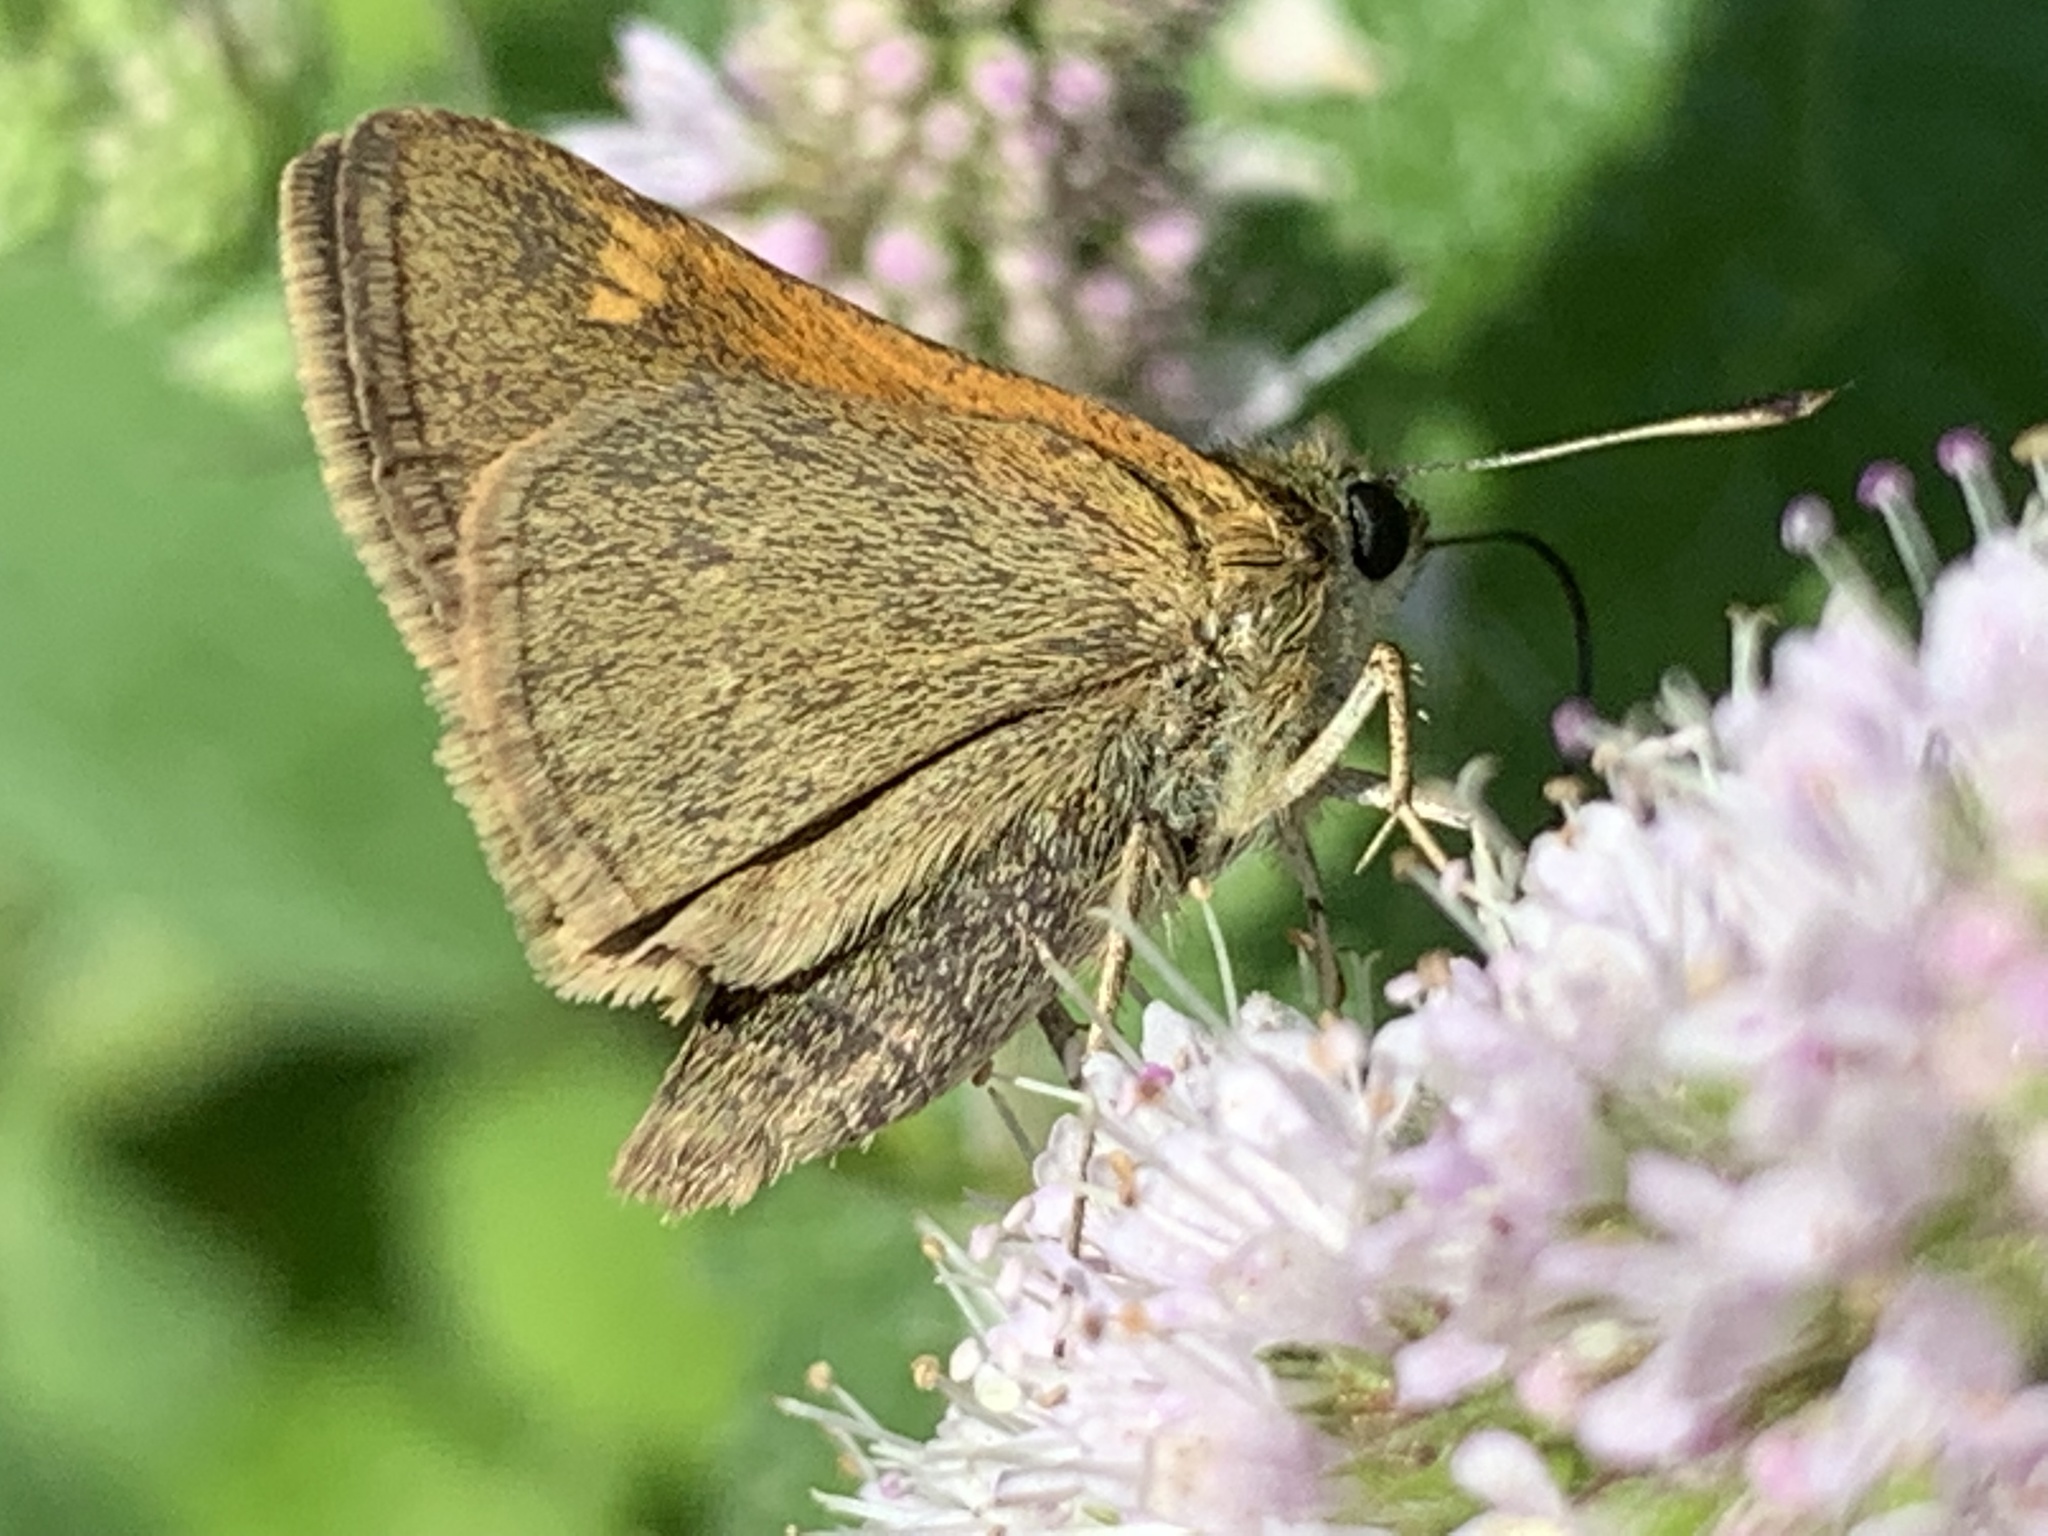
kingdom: Animalia
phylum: Arthropoda
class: Insecta
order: Lepidoptera
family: Hesperiidae
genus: Polites
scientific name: Polites themistocles
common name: Tawny-edged skipper
